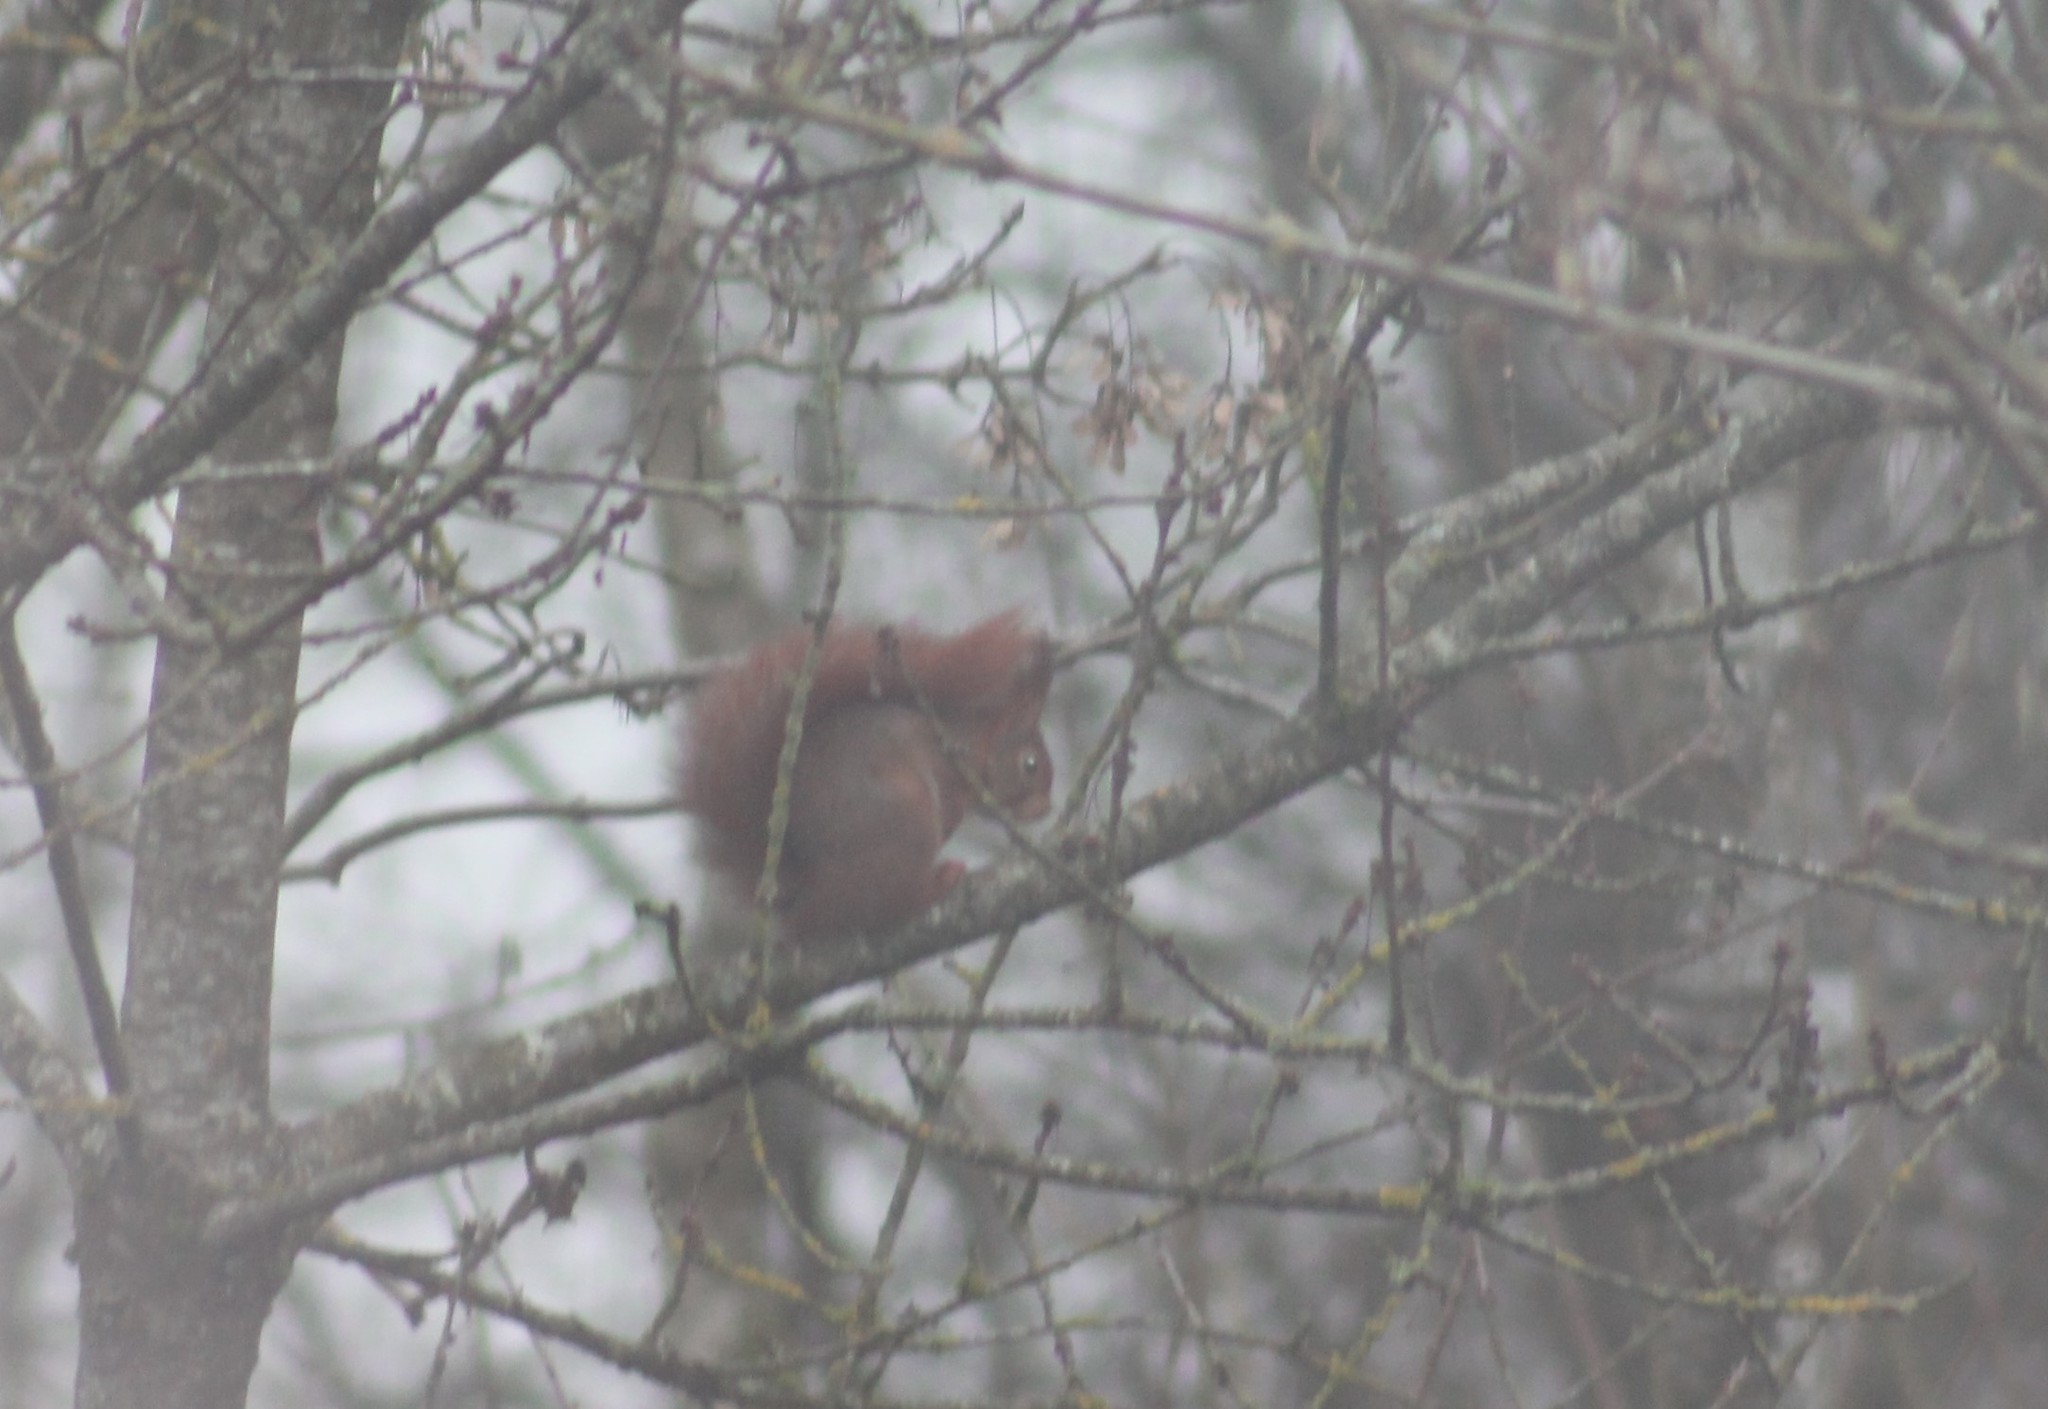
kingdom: Animalia
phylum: Chordata
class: Mammalia
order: Rodentia
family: Sciuridae
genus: Sciurus
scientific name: Sciurus vulgaris
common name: Eurasian red squirrel
